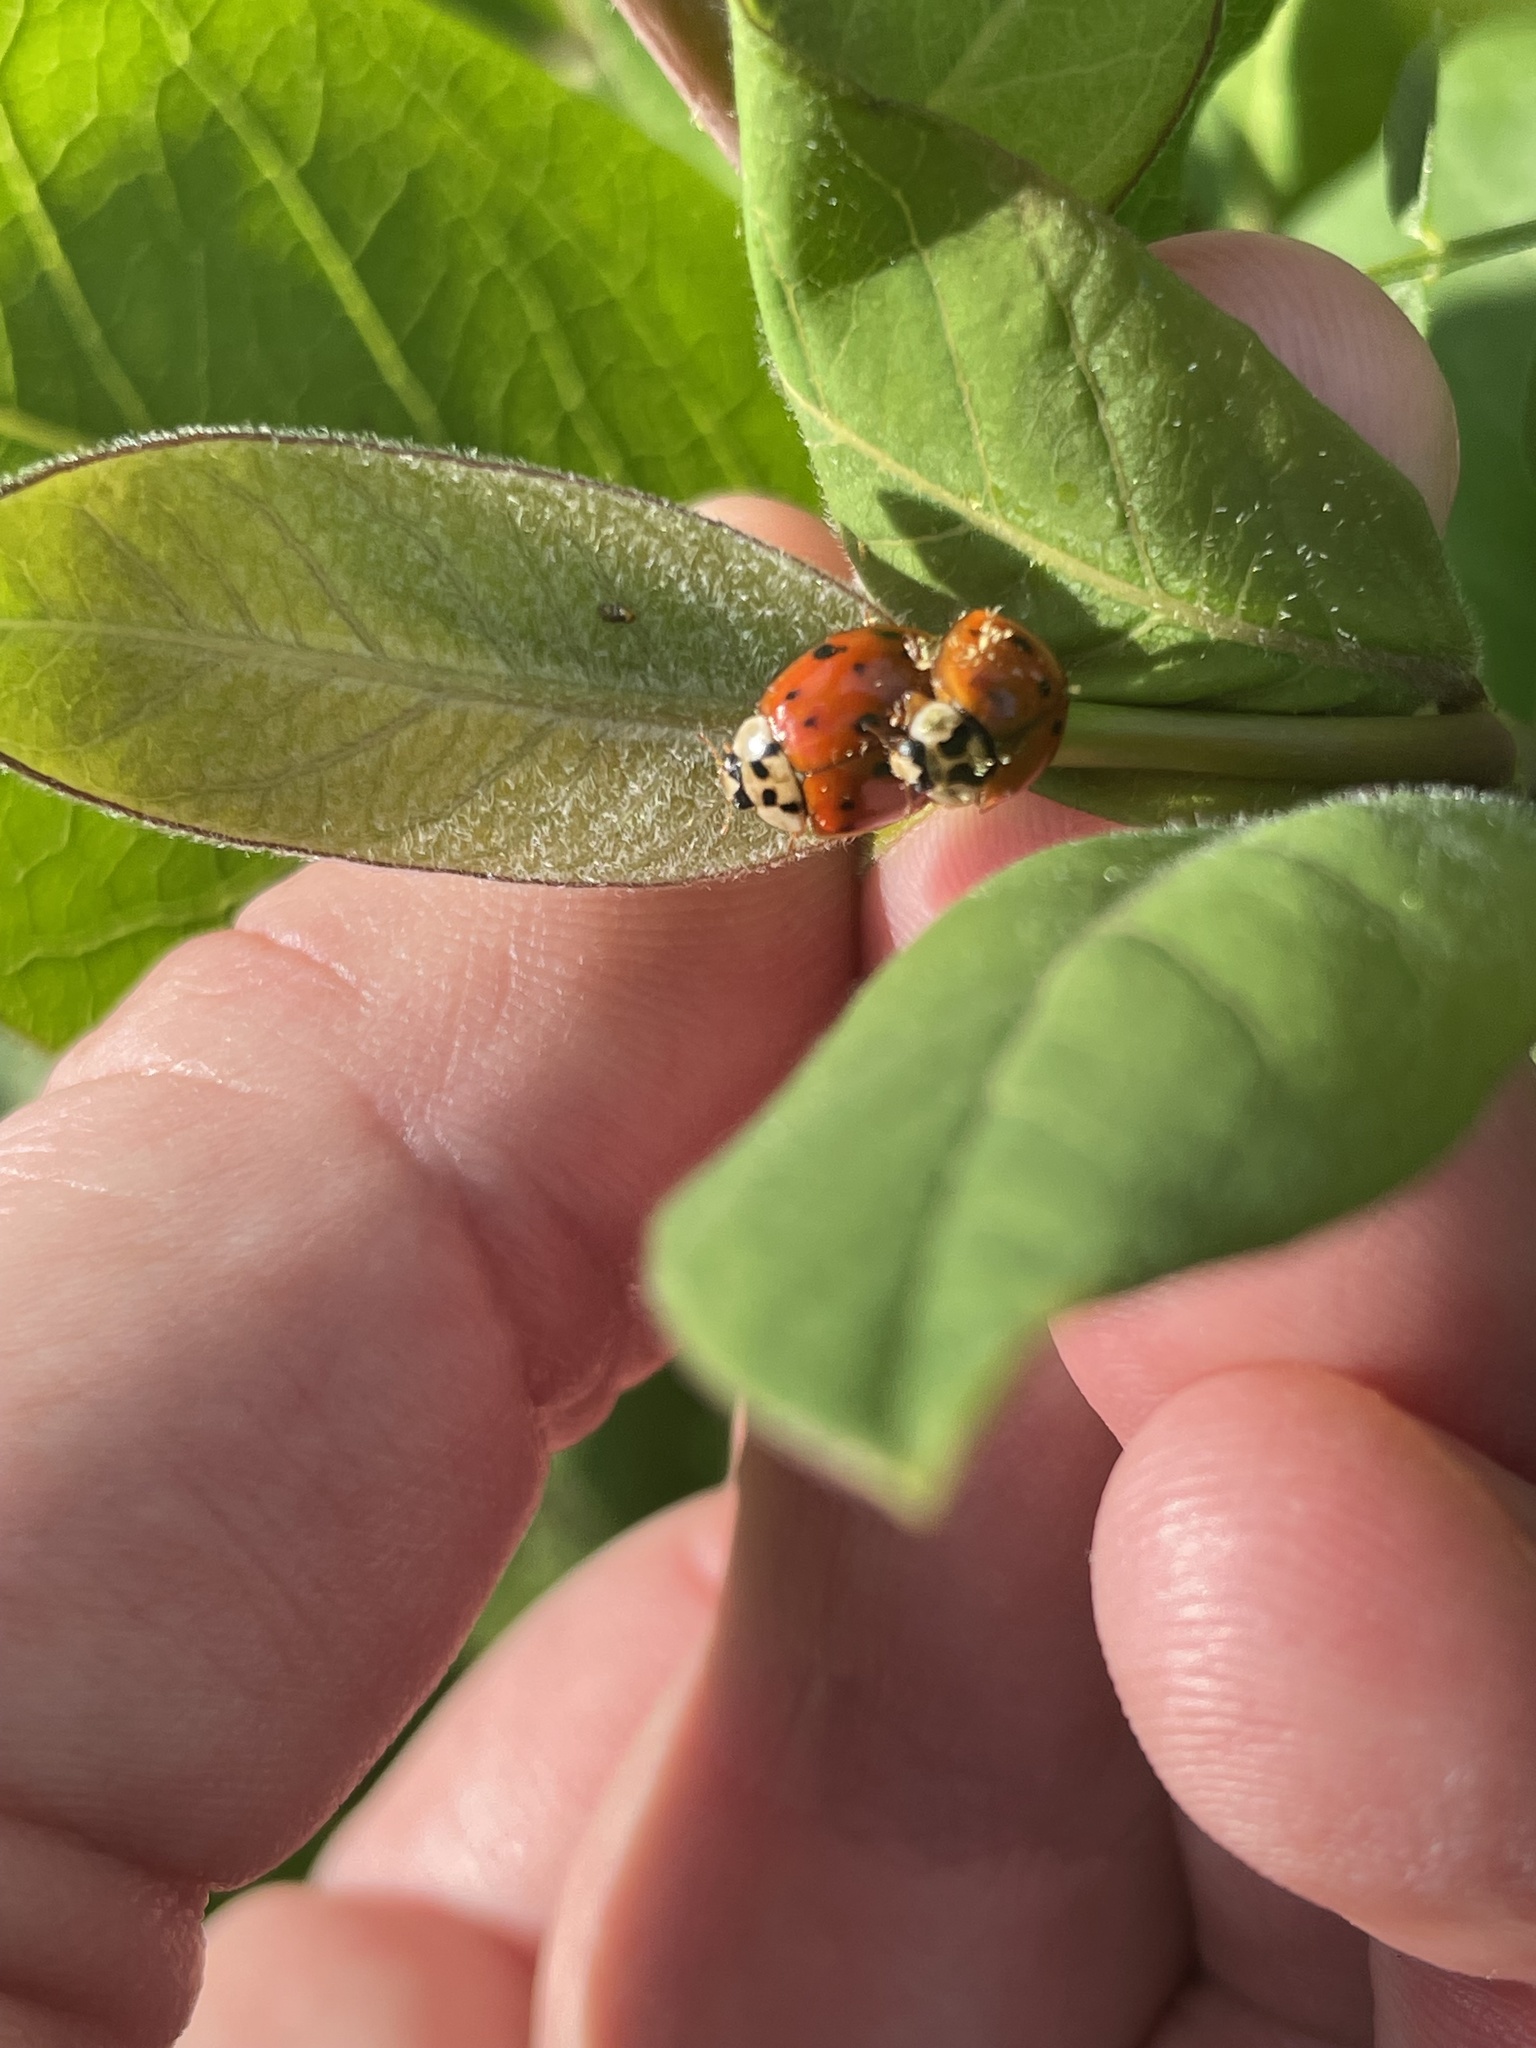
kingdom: Animalia
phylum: Arthropoda
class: Insecta
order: Coleoptera
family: Coccinellidae
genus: Harmonia
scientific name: Harmonia axyridis
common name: Harlequin ladybird
